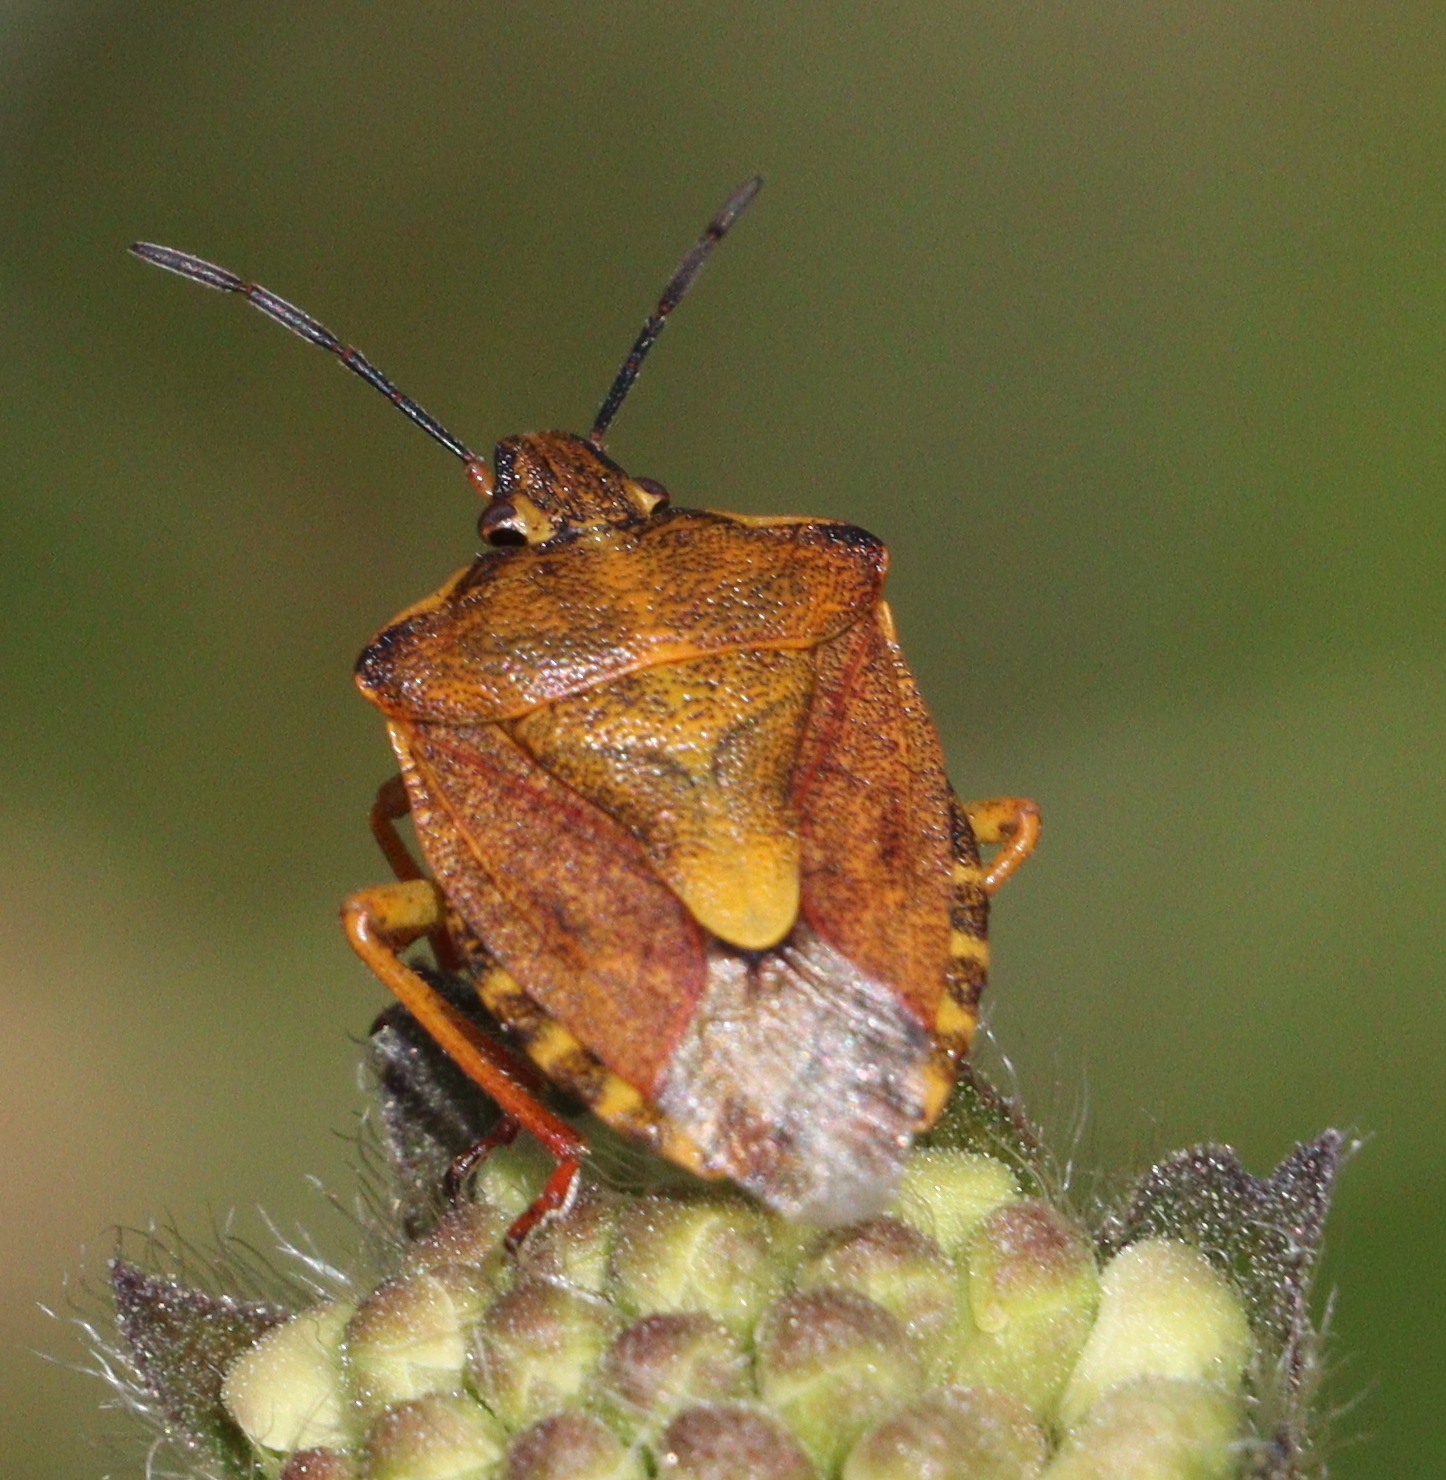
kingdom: Animalia
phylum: Arthropoda
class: Insecta
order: Hemiptera
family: Pentatomidae
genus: Carpocoris
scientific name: Carpocoris purpureipennis
